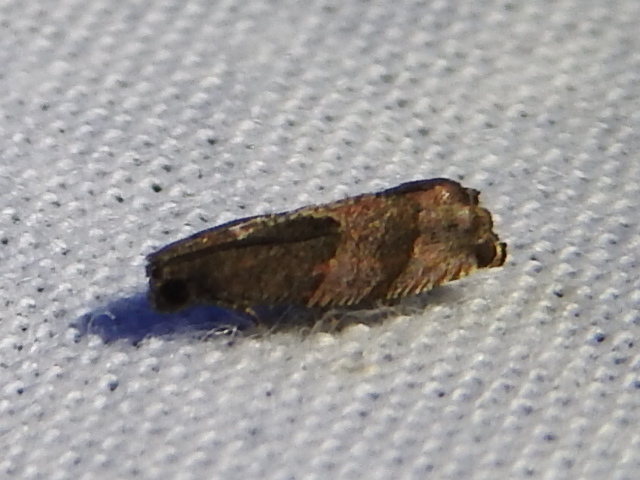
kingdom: Animalia
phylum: Arthropoda
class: Insecta
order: Lepidoptera
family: Tortricidae
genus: Gypsonoma
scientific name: Gypsonoma salicicolana
